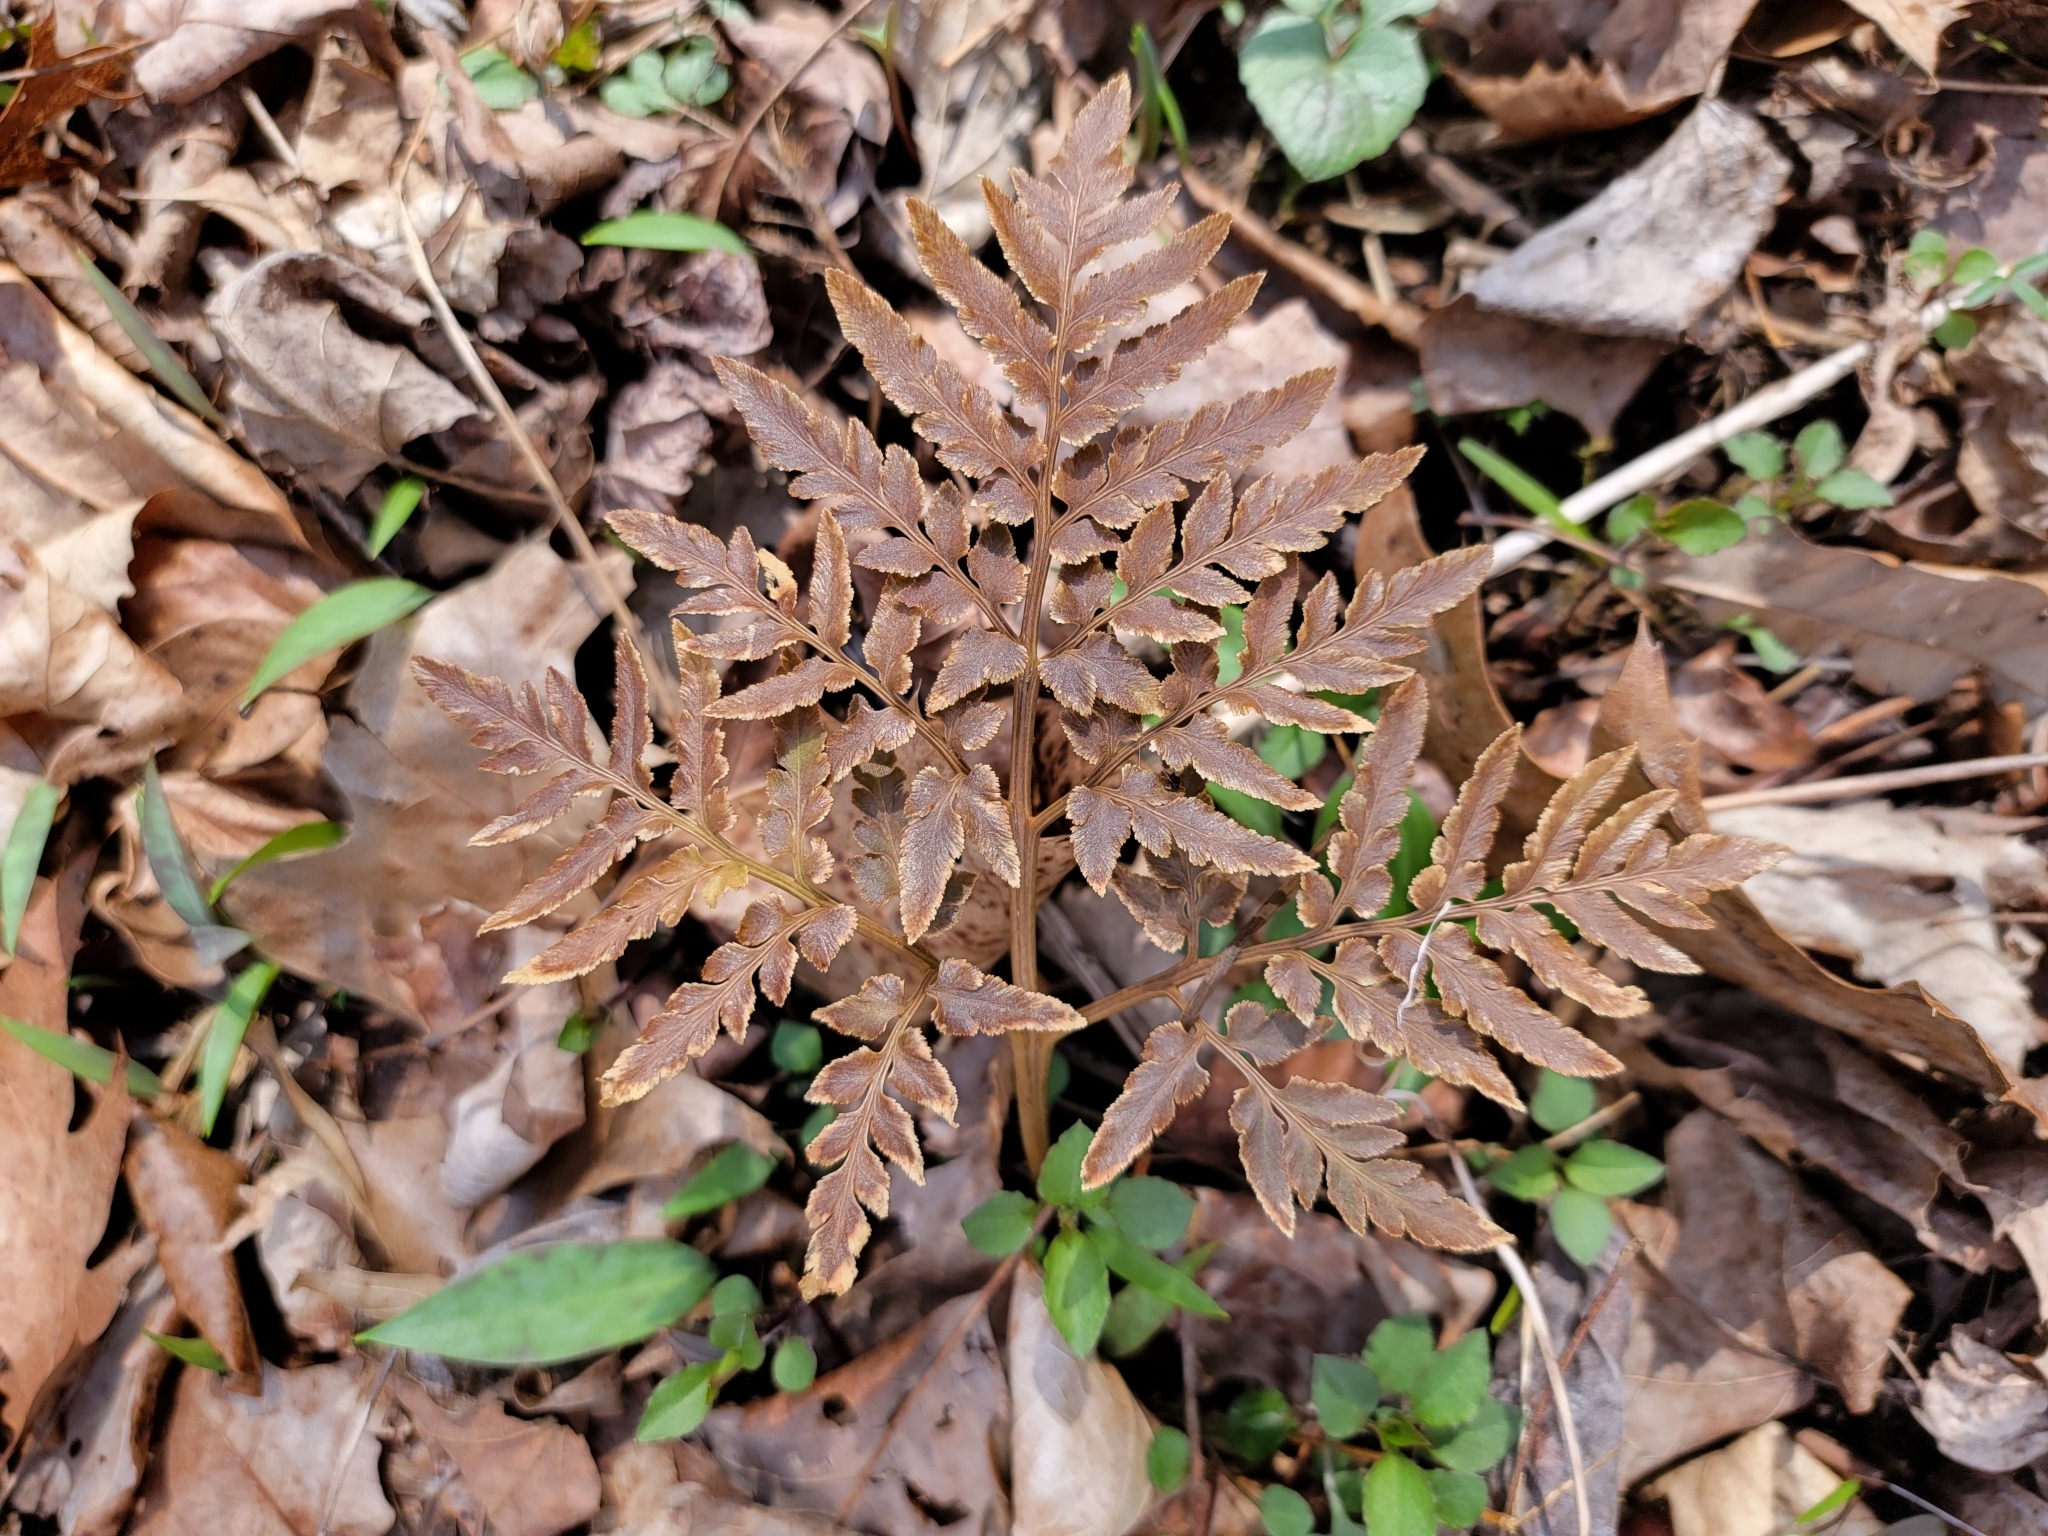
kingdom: Plantae
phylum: Tracheophyta
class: Polypodiopsida
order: Ophioglossales
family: Ophioglossaceae
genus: Sceptridium
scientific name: Sceptridium dissectum
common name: Cut-leaved grapefern
